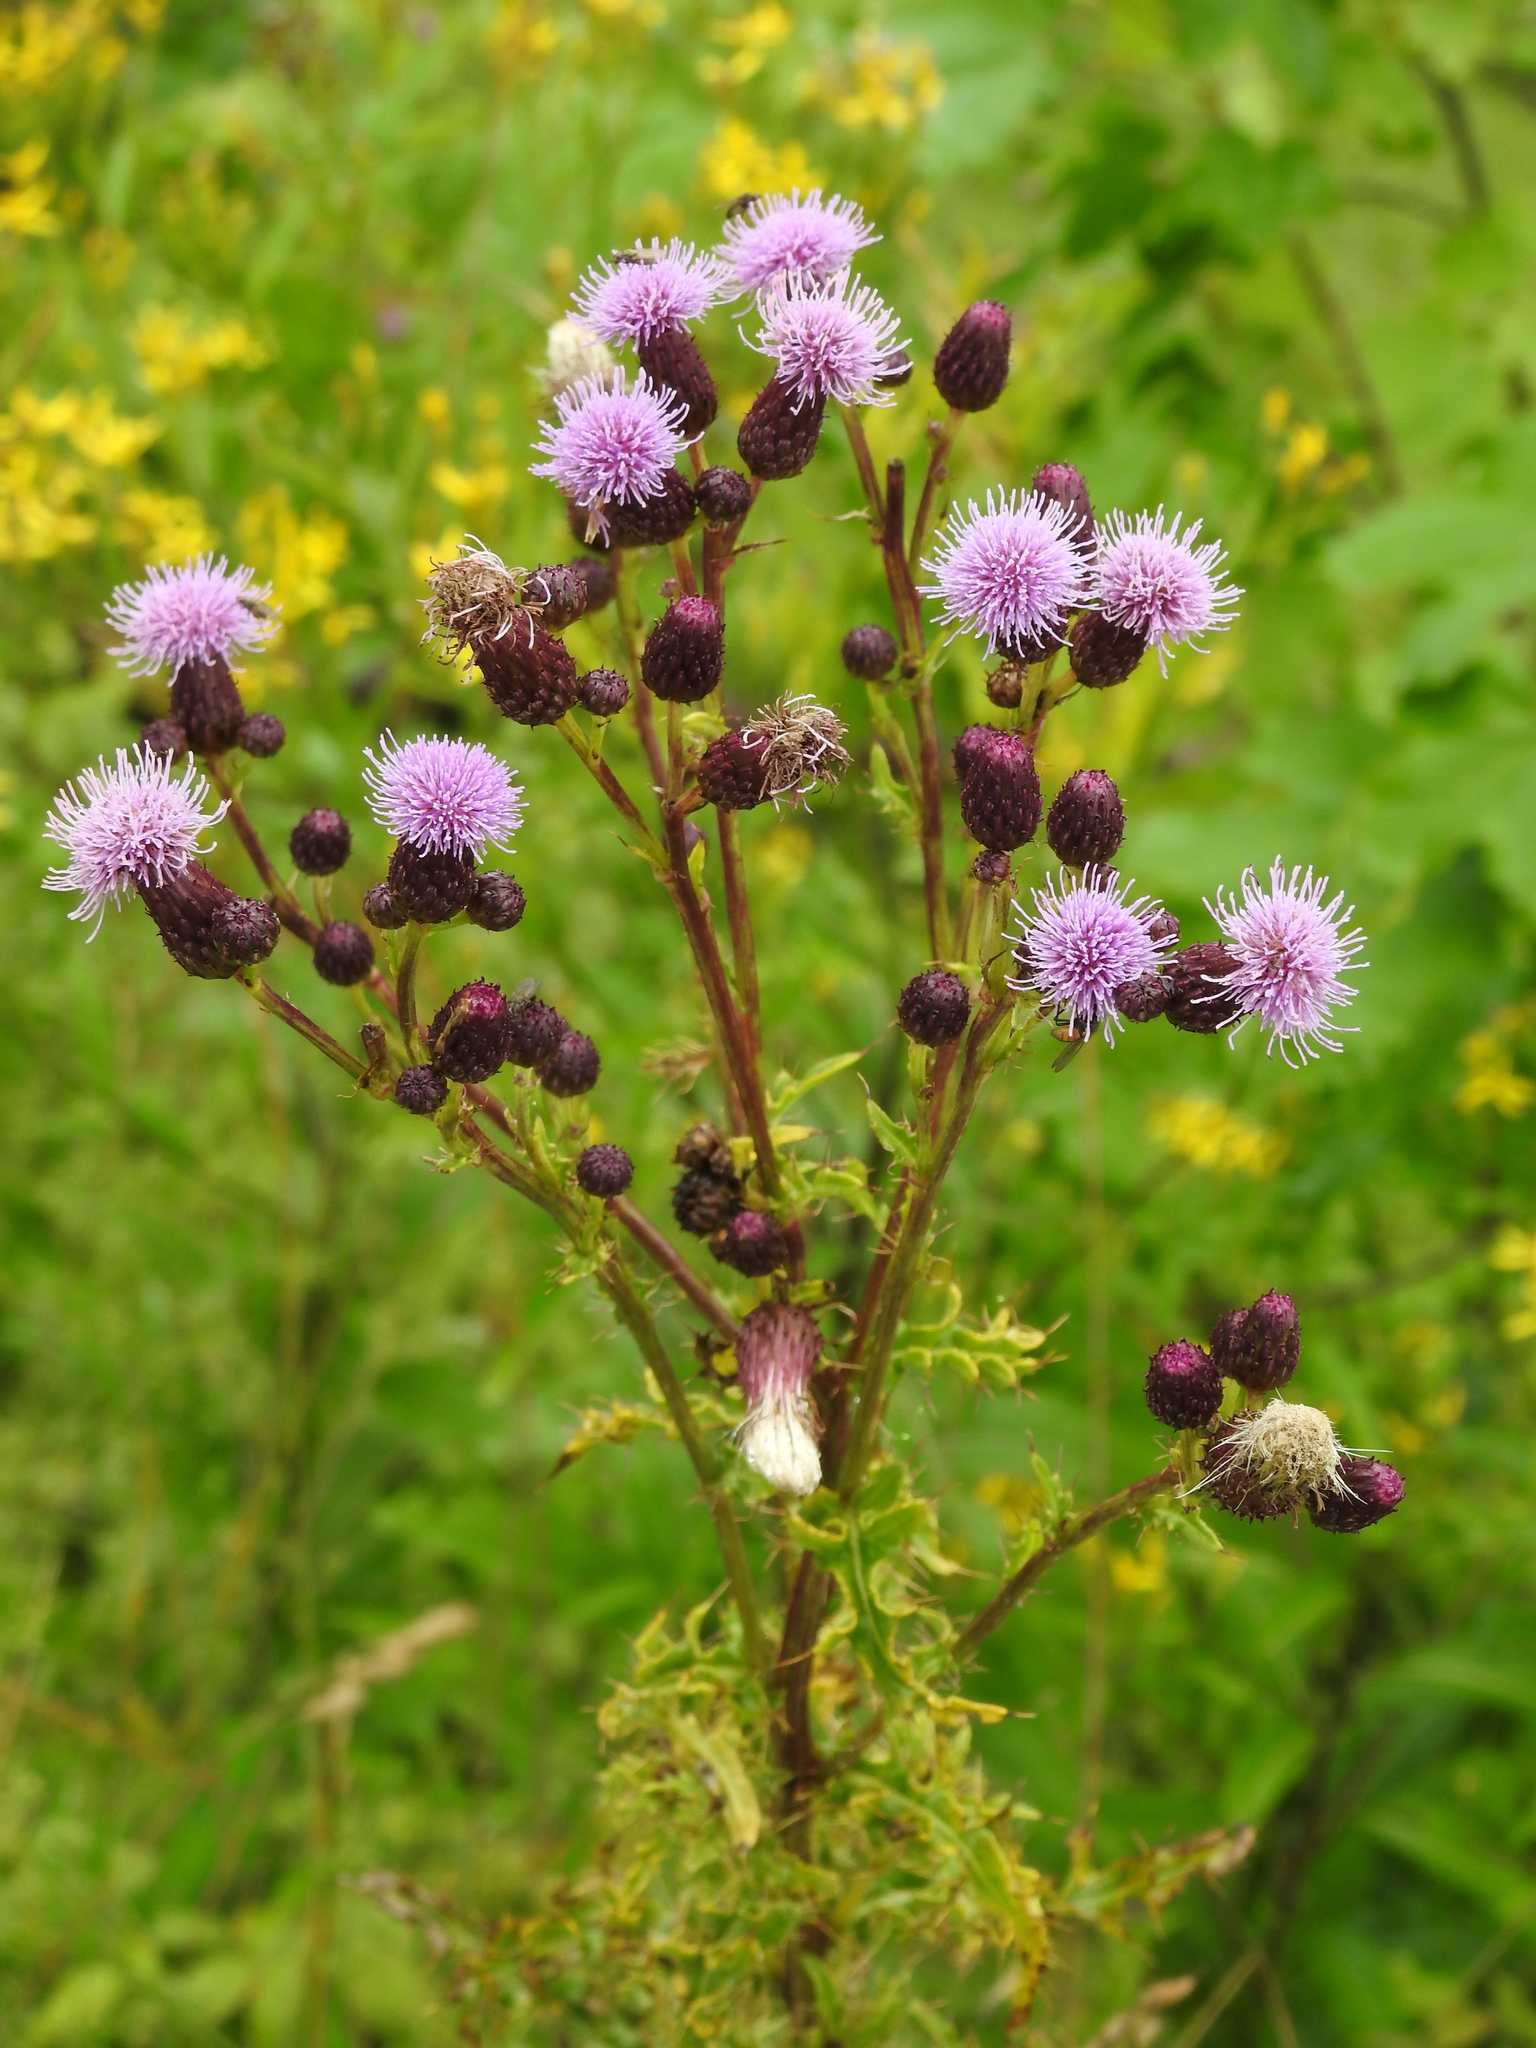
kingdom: Plantae
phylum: Tracheophyta
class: Magnoliopsida
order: Asterales
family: Asteraceae
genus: Cirsium
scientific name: Cirsium arvense
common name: Creeping thistle
